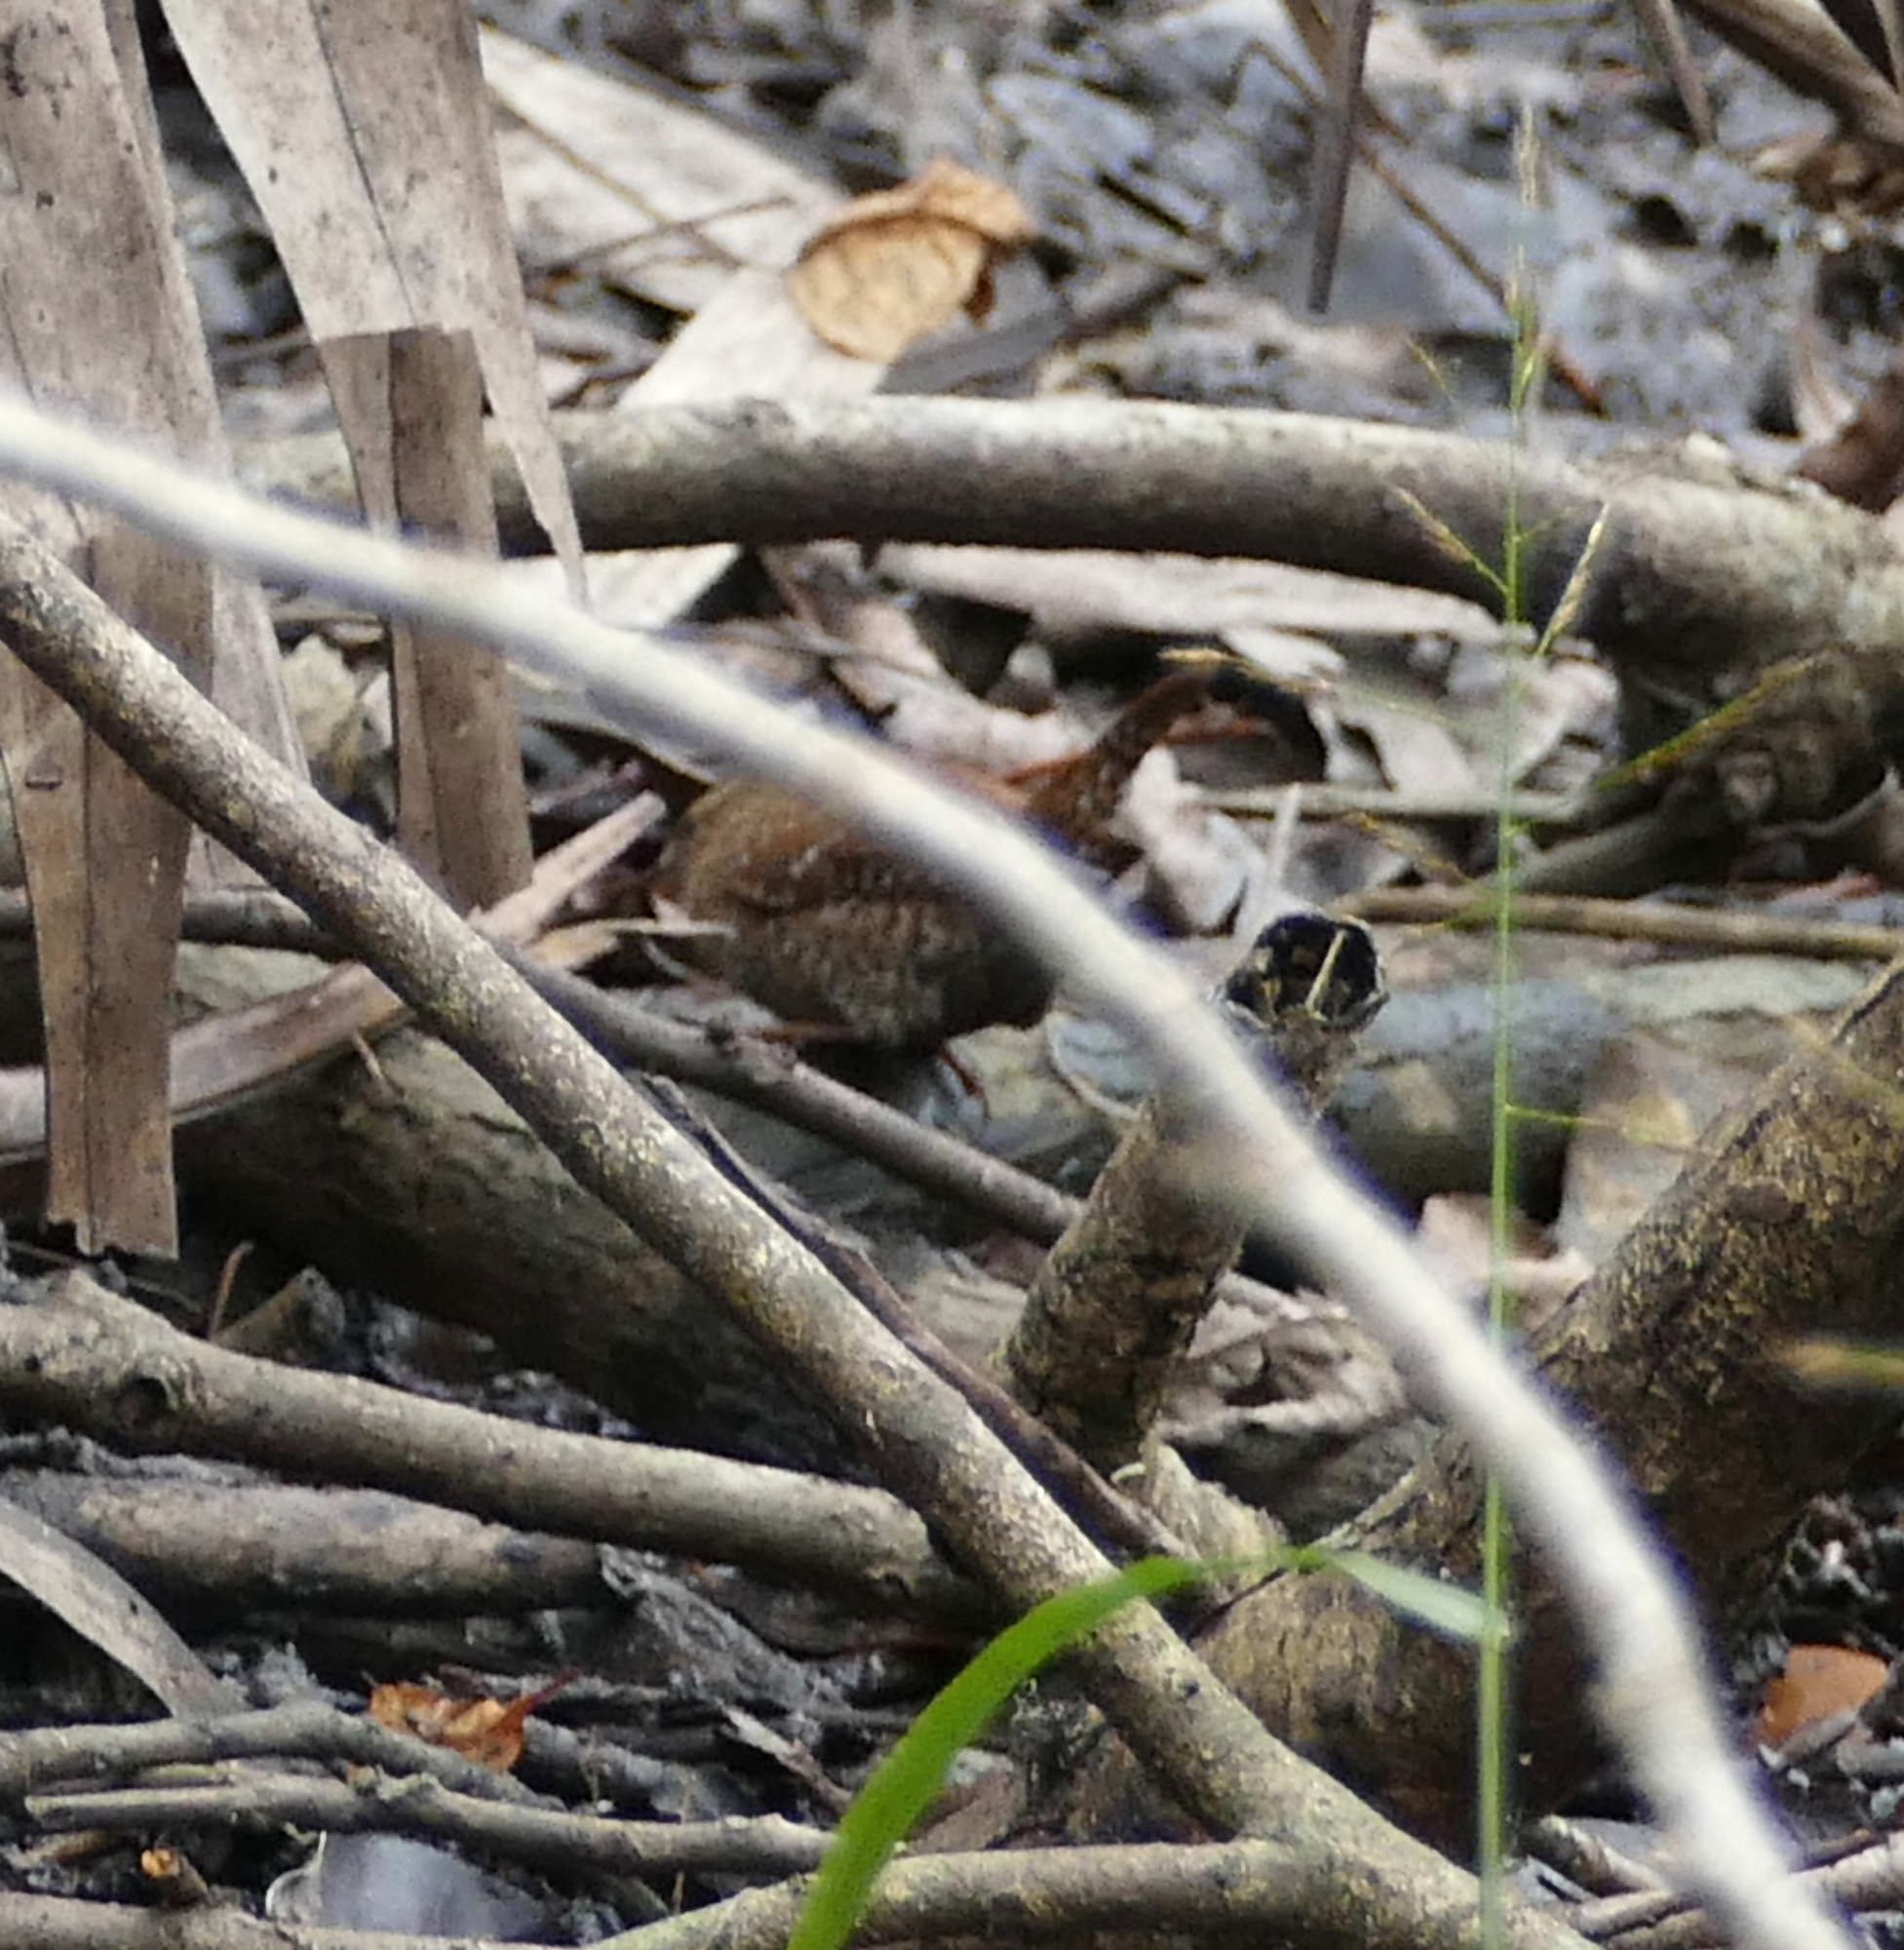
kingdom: Animalia
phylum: Chordata
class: Aves
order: Passeriformes
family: Troglodytidae
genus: Troglodytes
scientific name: Troglodytes hiemalis
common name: Winter wren
